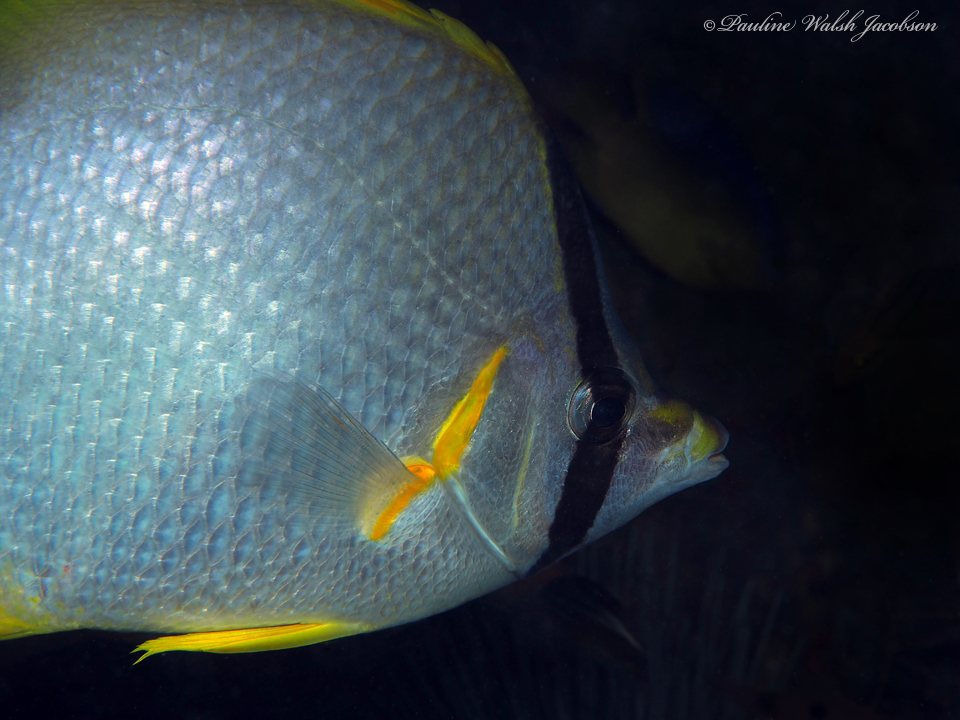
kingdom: Animalia
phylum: Chordata
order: Perciformes
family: Chaetodontidae
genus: Chaetodon
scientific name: Chaetodon ocellatus
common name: Spotfin butterflyfish
